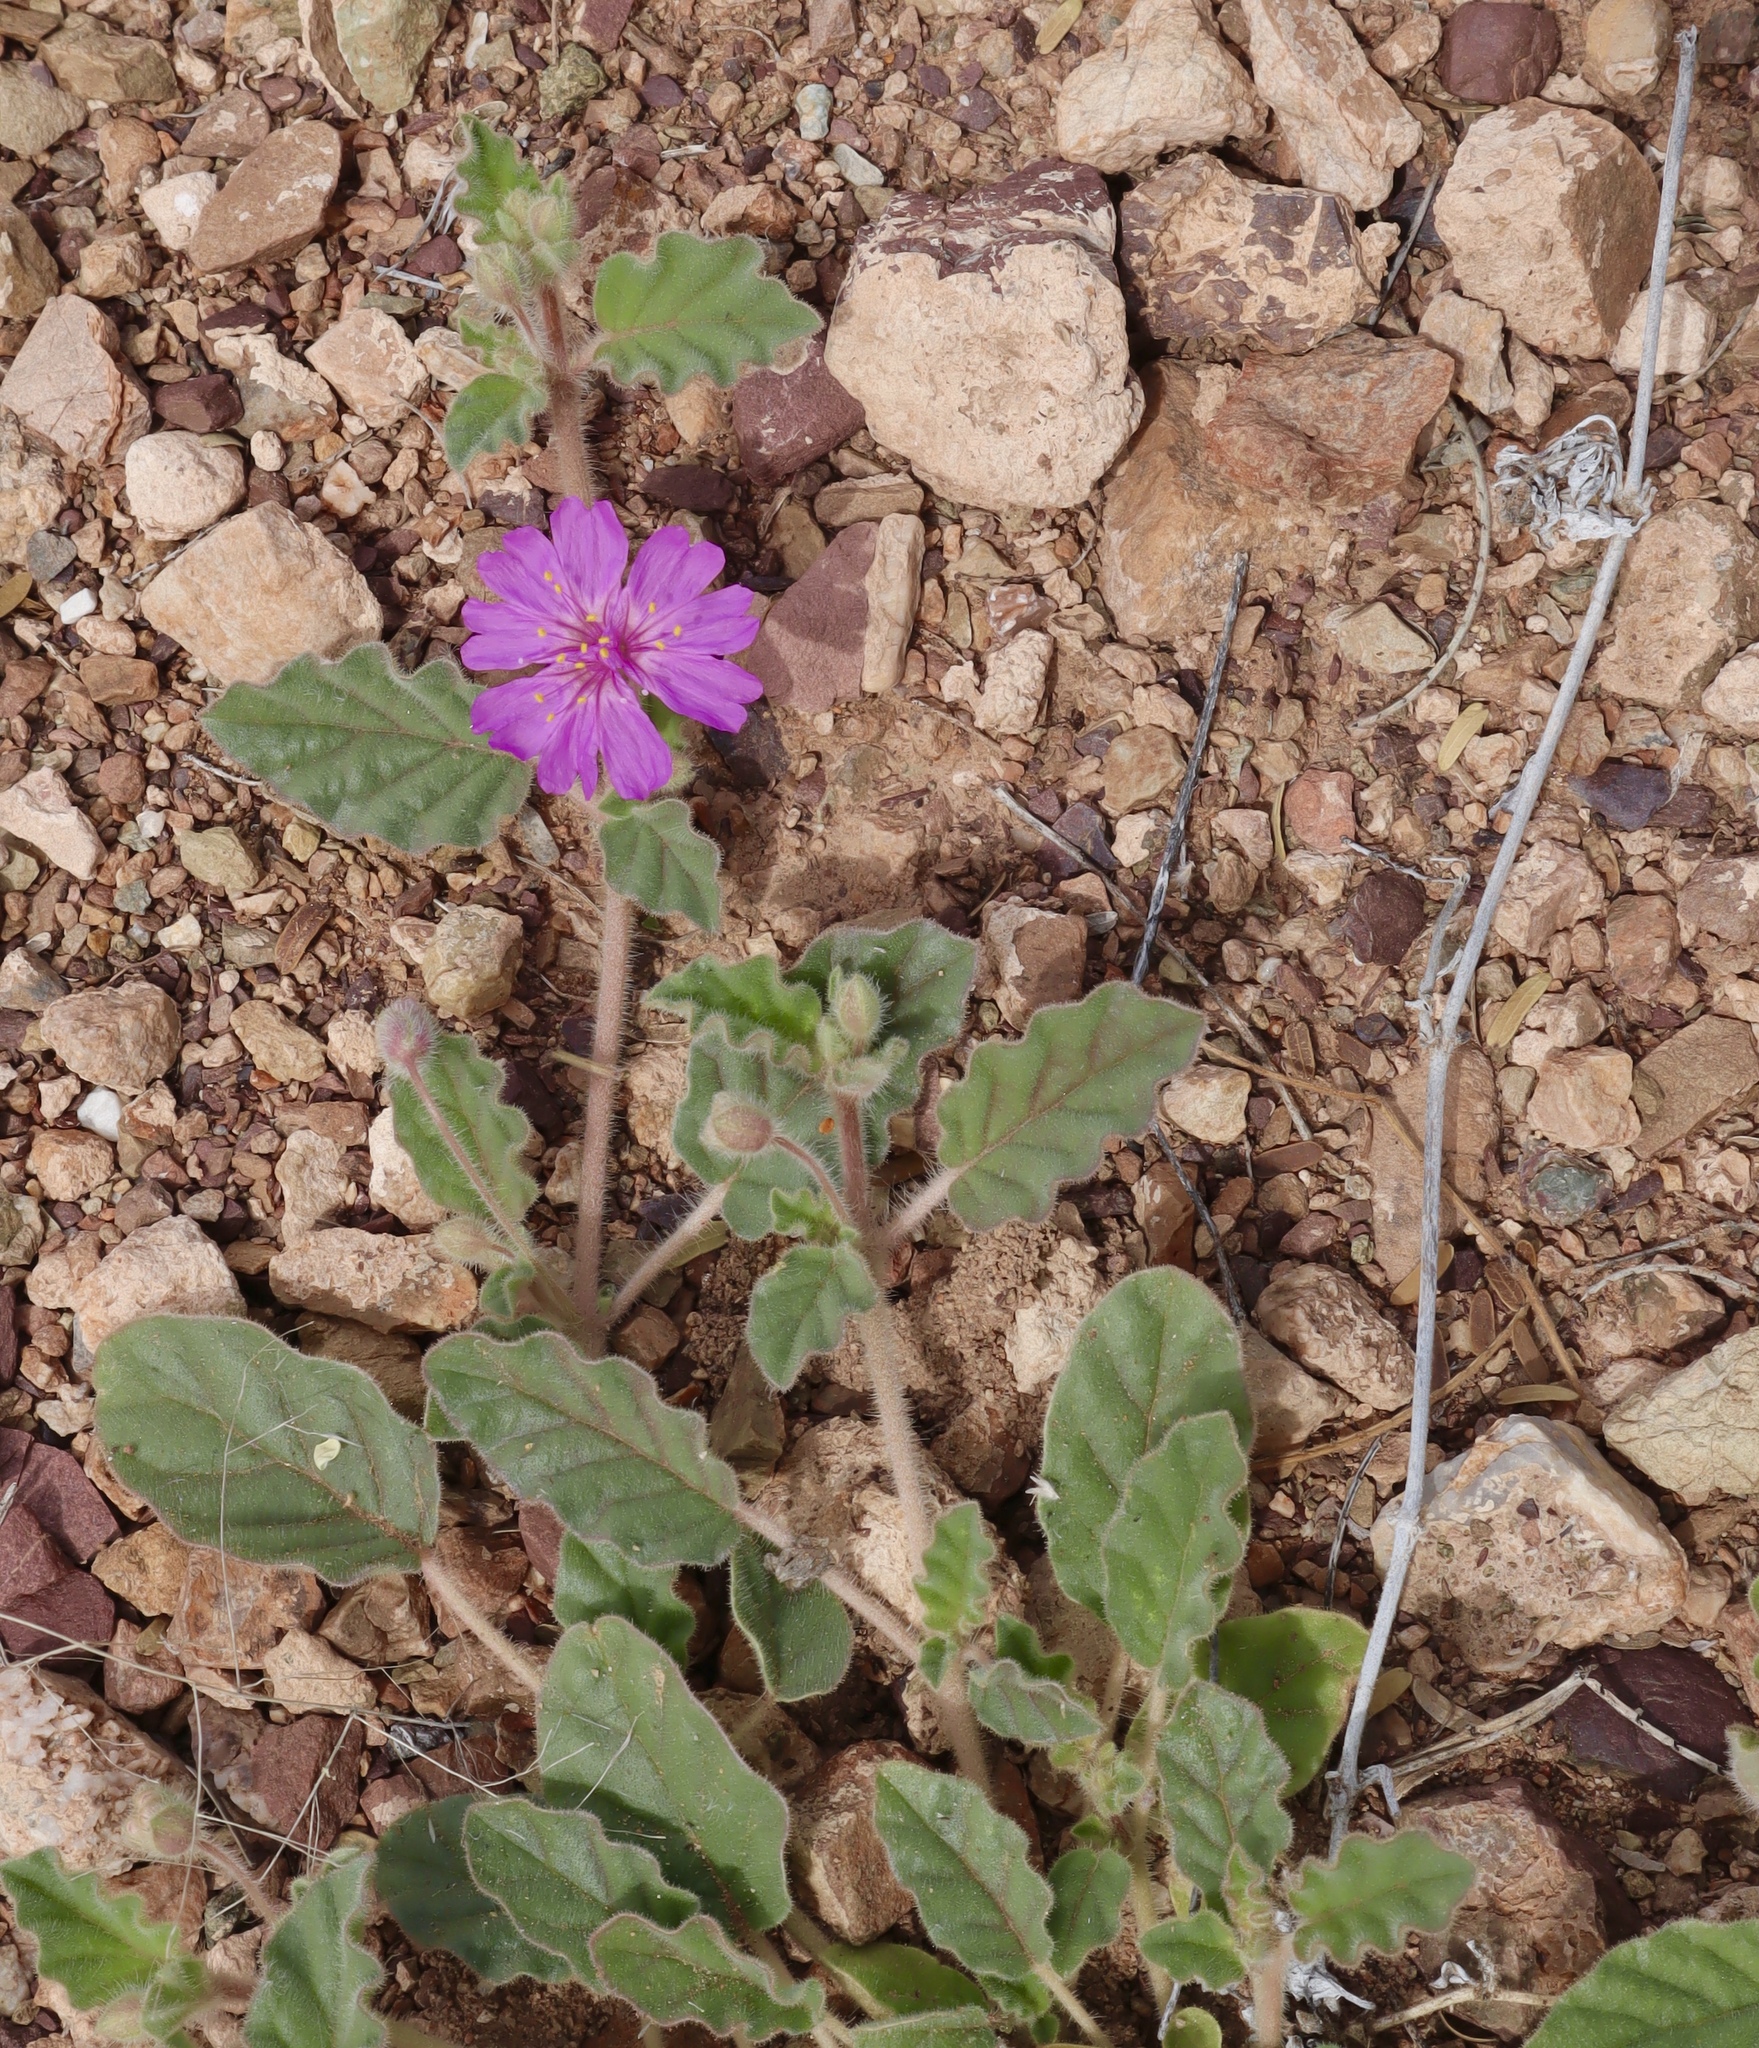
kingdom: Plantae
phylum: Tracheophyta
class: Magnoliopsida
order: Caryophyllales
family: Nyctaginaceae
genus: Allionia
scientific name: Allionia incarnata
